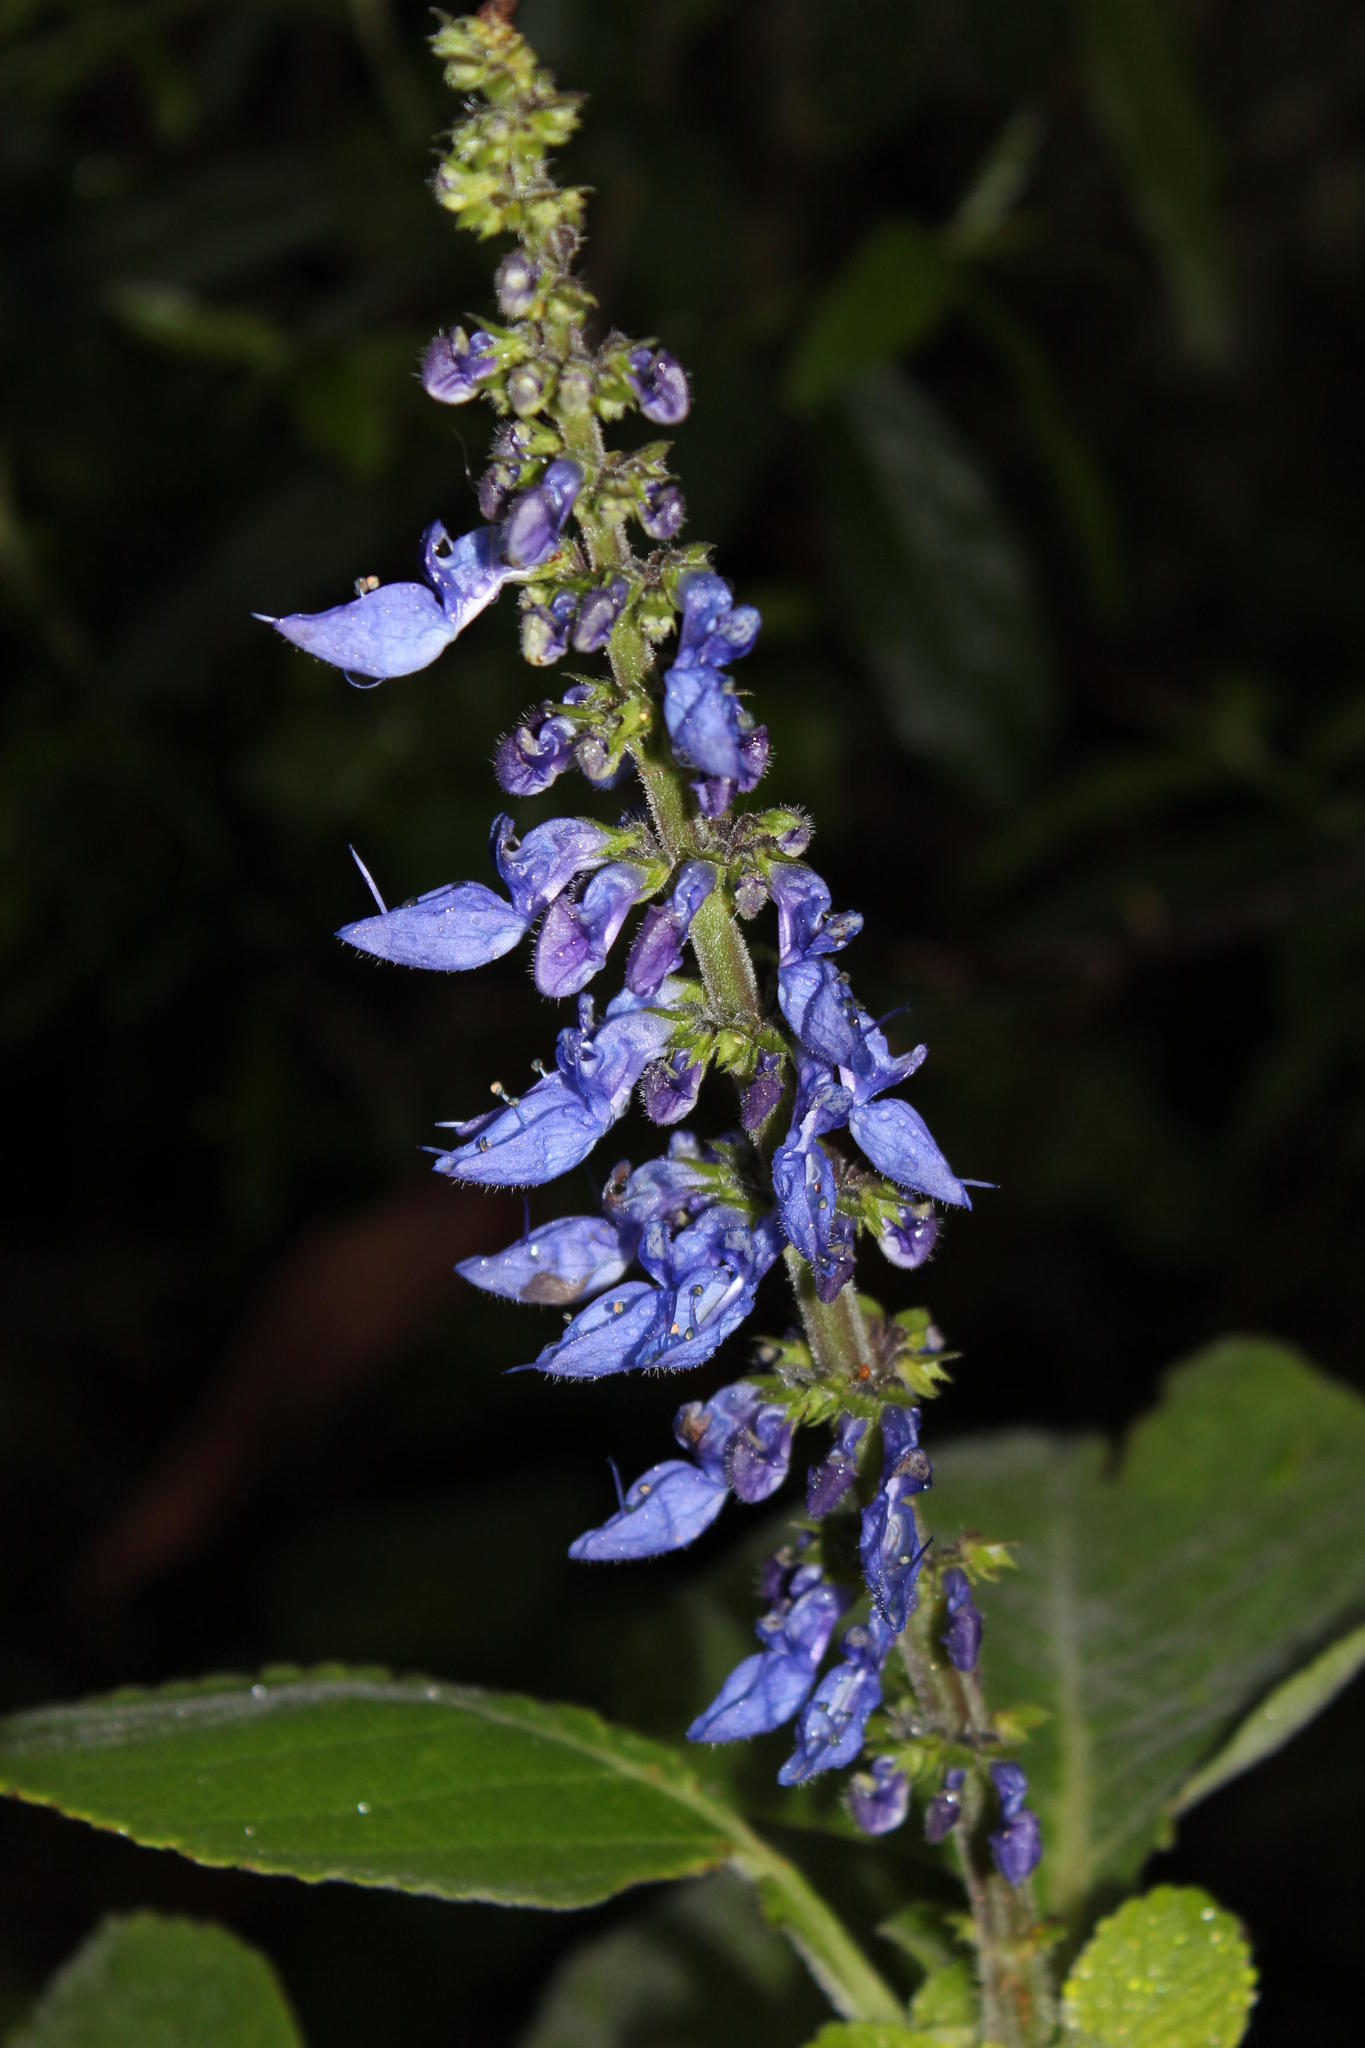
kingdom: Plantae
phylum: Tracheophyta
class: Magnoliopsida
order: Lamiales
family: Lamiaceae
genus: Coleus
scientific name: Coleus barbatus
